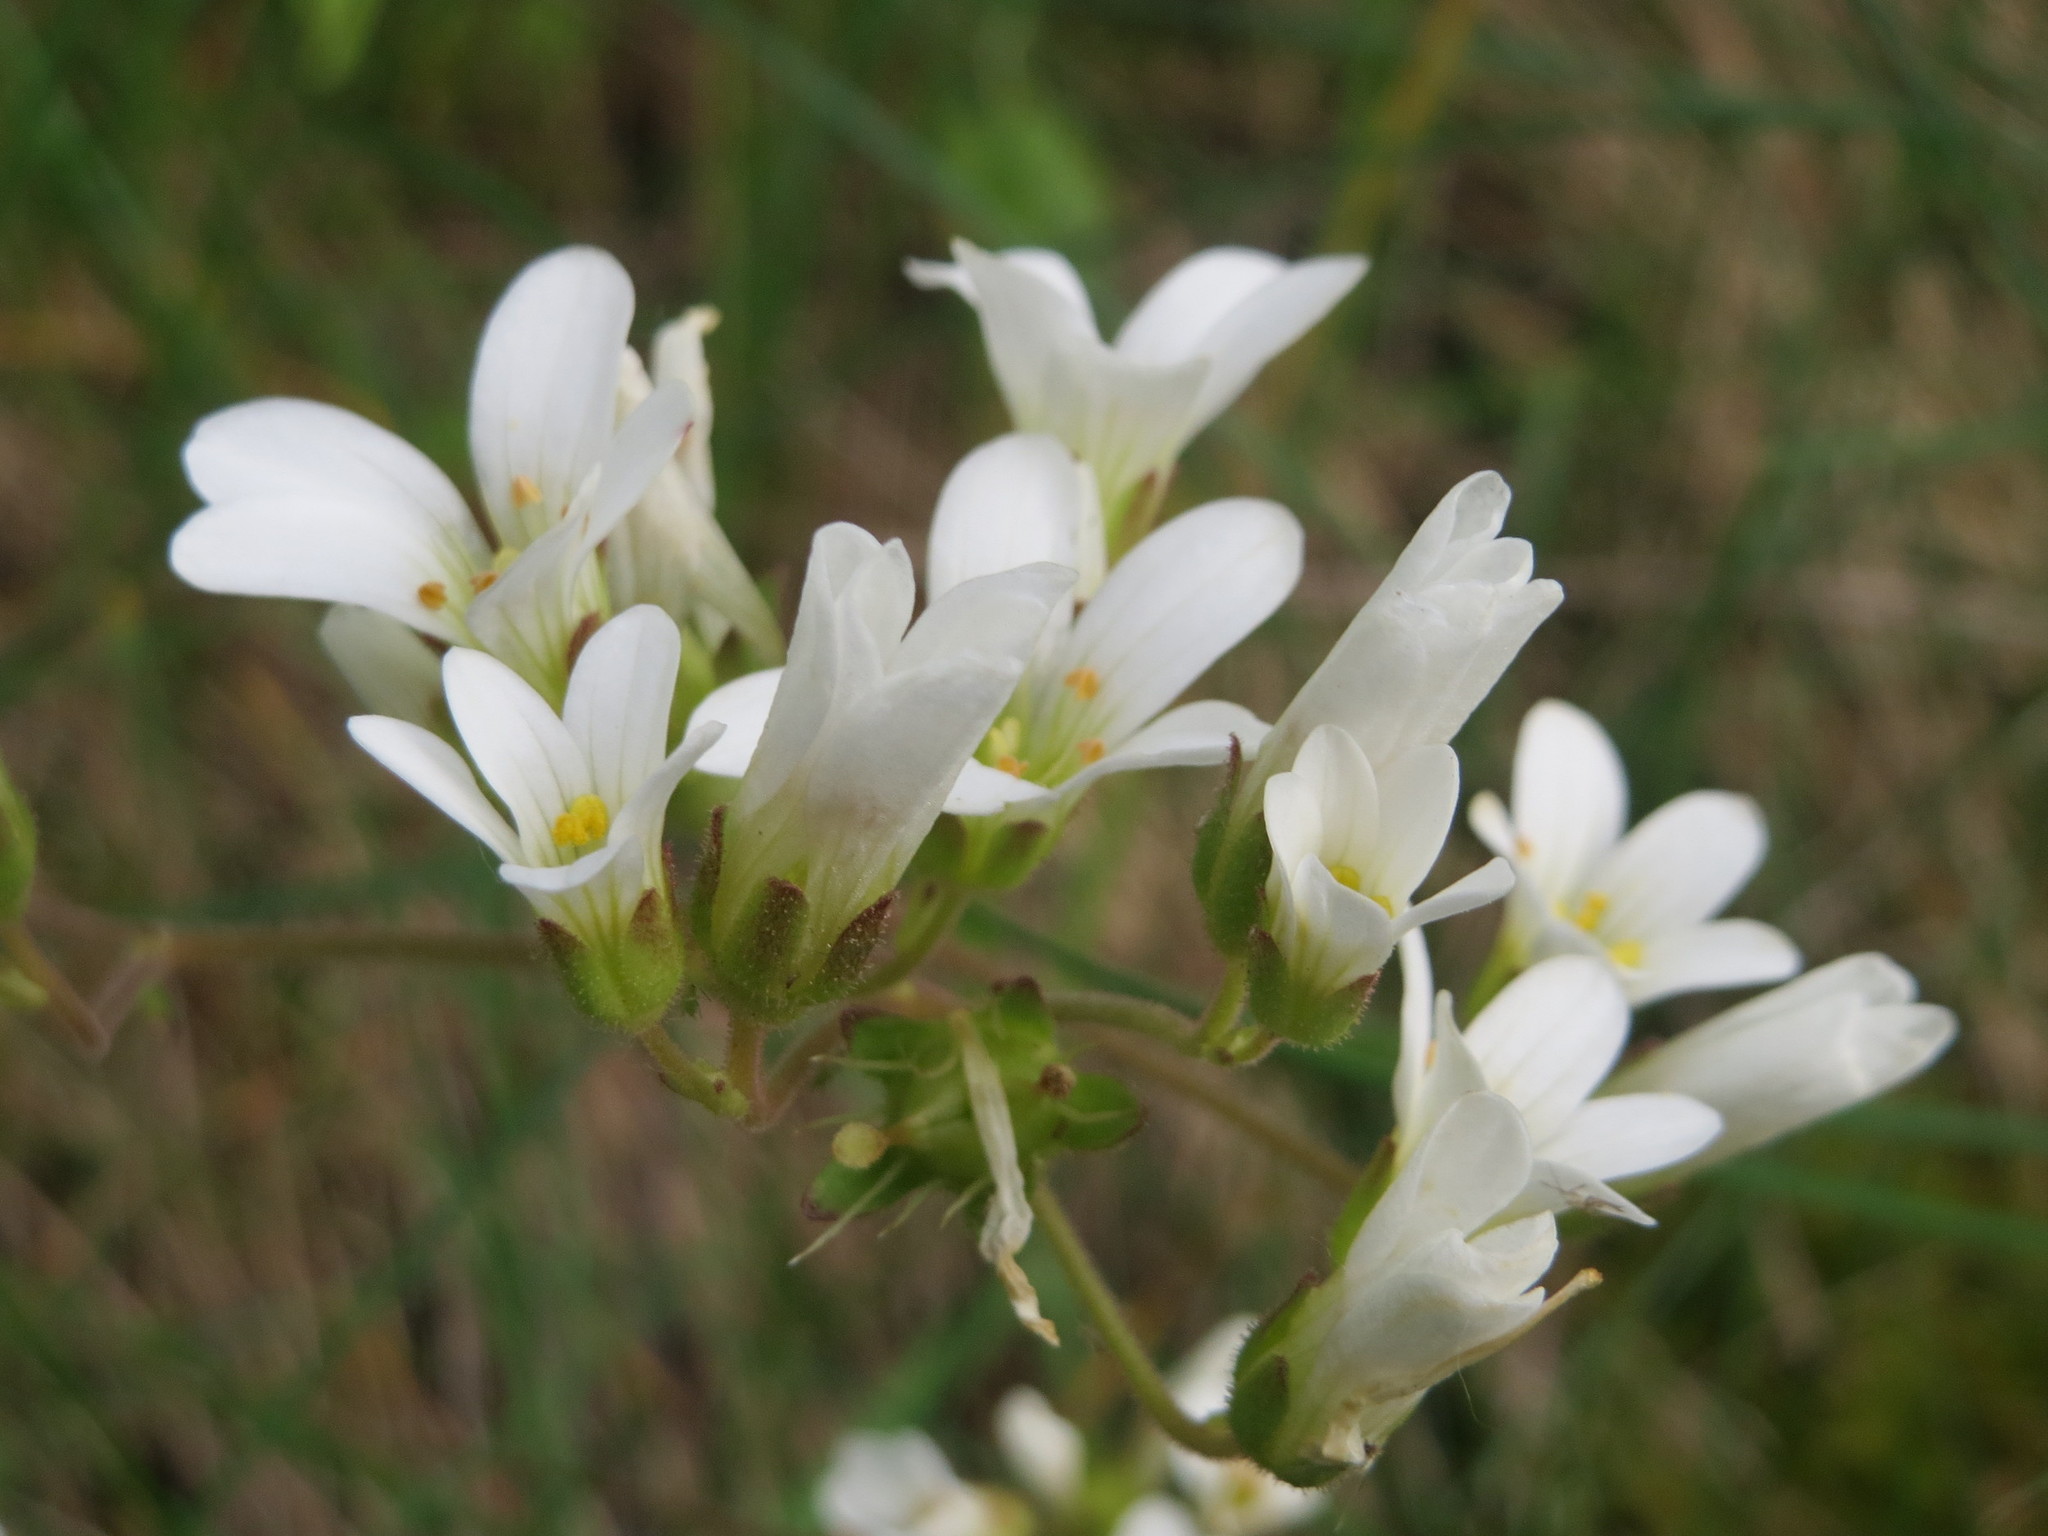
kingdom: Plantae
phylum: Tracheophyta
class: Magnoliopsida
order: Saxifragales
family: Saxifragaceae
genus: Saxifraga
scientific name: Saxifraga granulata
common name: Meadow saxifrage
